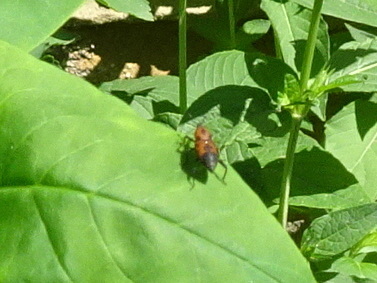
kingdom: Animalia
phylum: Arthropoda
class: Insecta
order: Coleoptera
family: Dryophthoridae
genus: Rhodobaenus
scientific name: Rhodobaenus quinquepunctatus
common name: Cocklebur weevil
